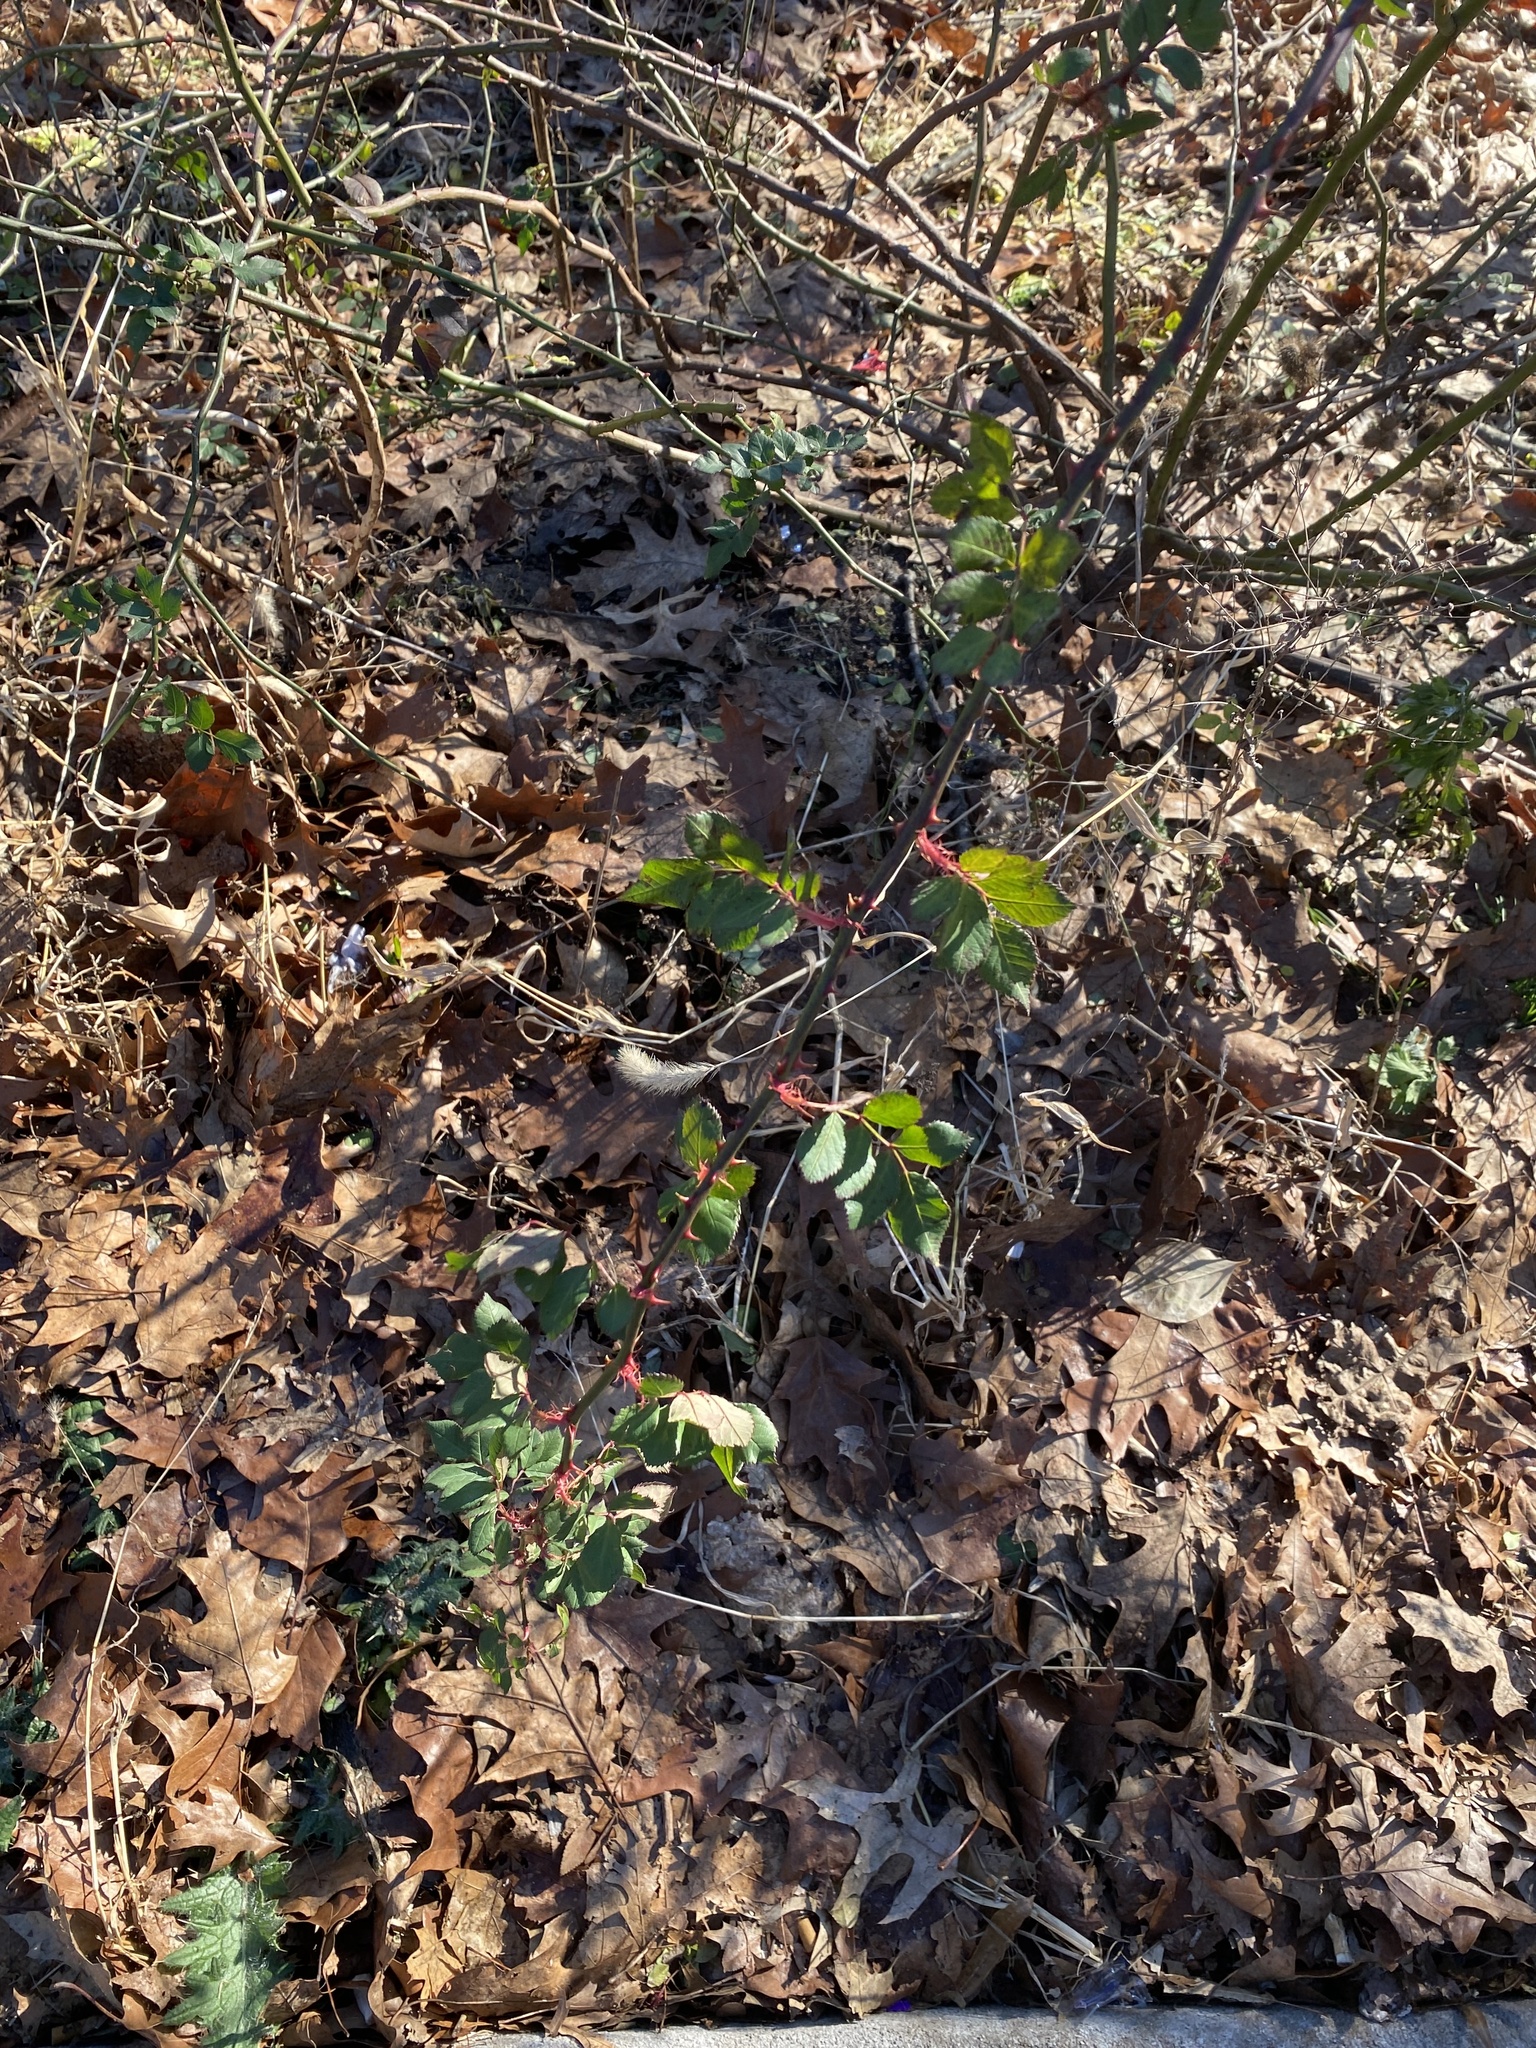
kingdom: Plantae
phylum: Tracheophyta
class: Magnoliopsida
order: Rosales
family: Rosaceae
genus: Rosa
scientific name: Rosa multiflora
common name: Multiflora rose
